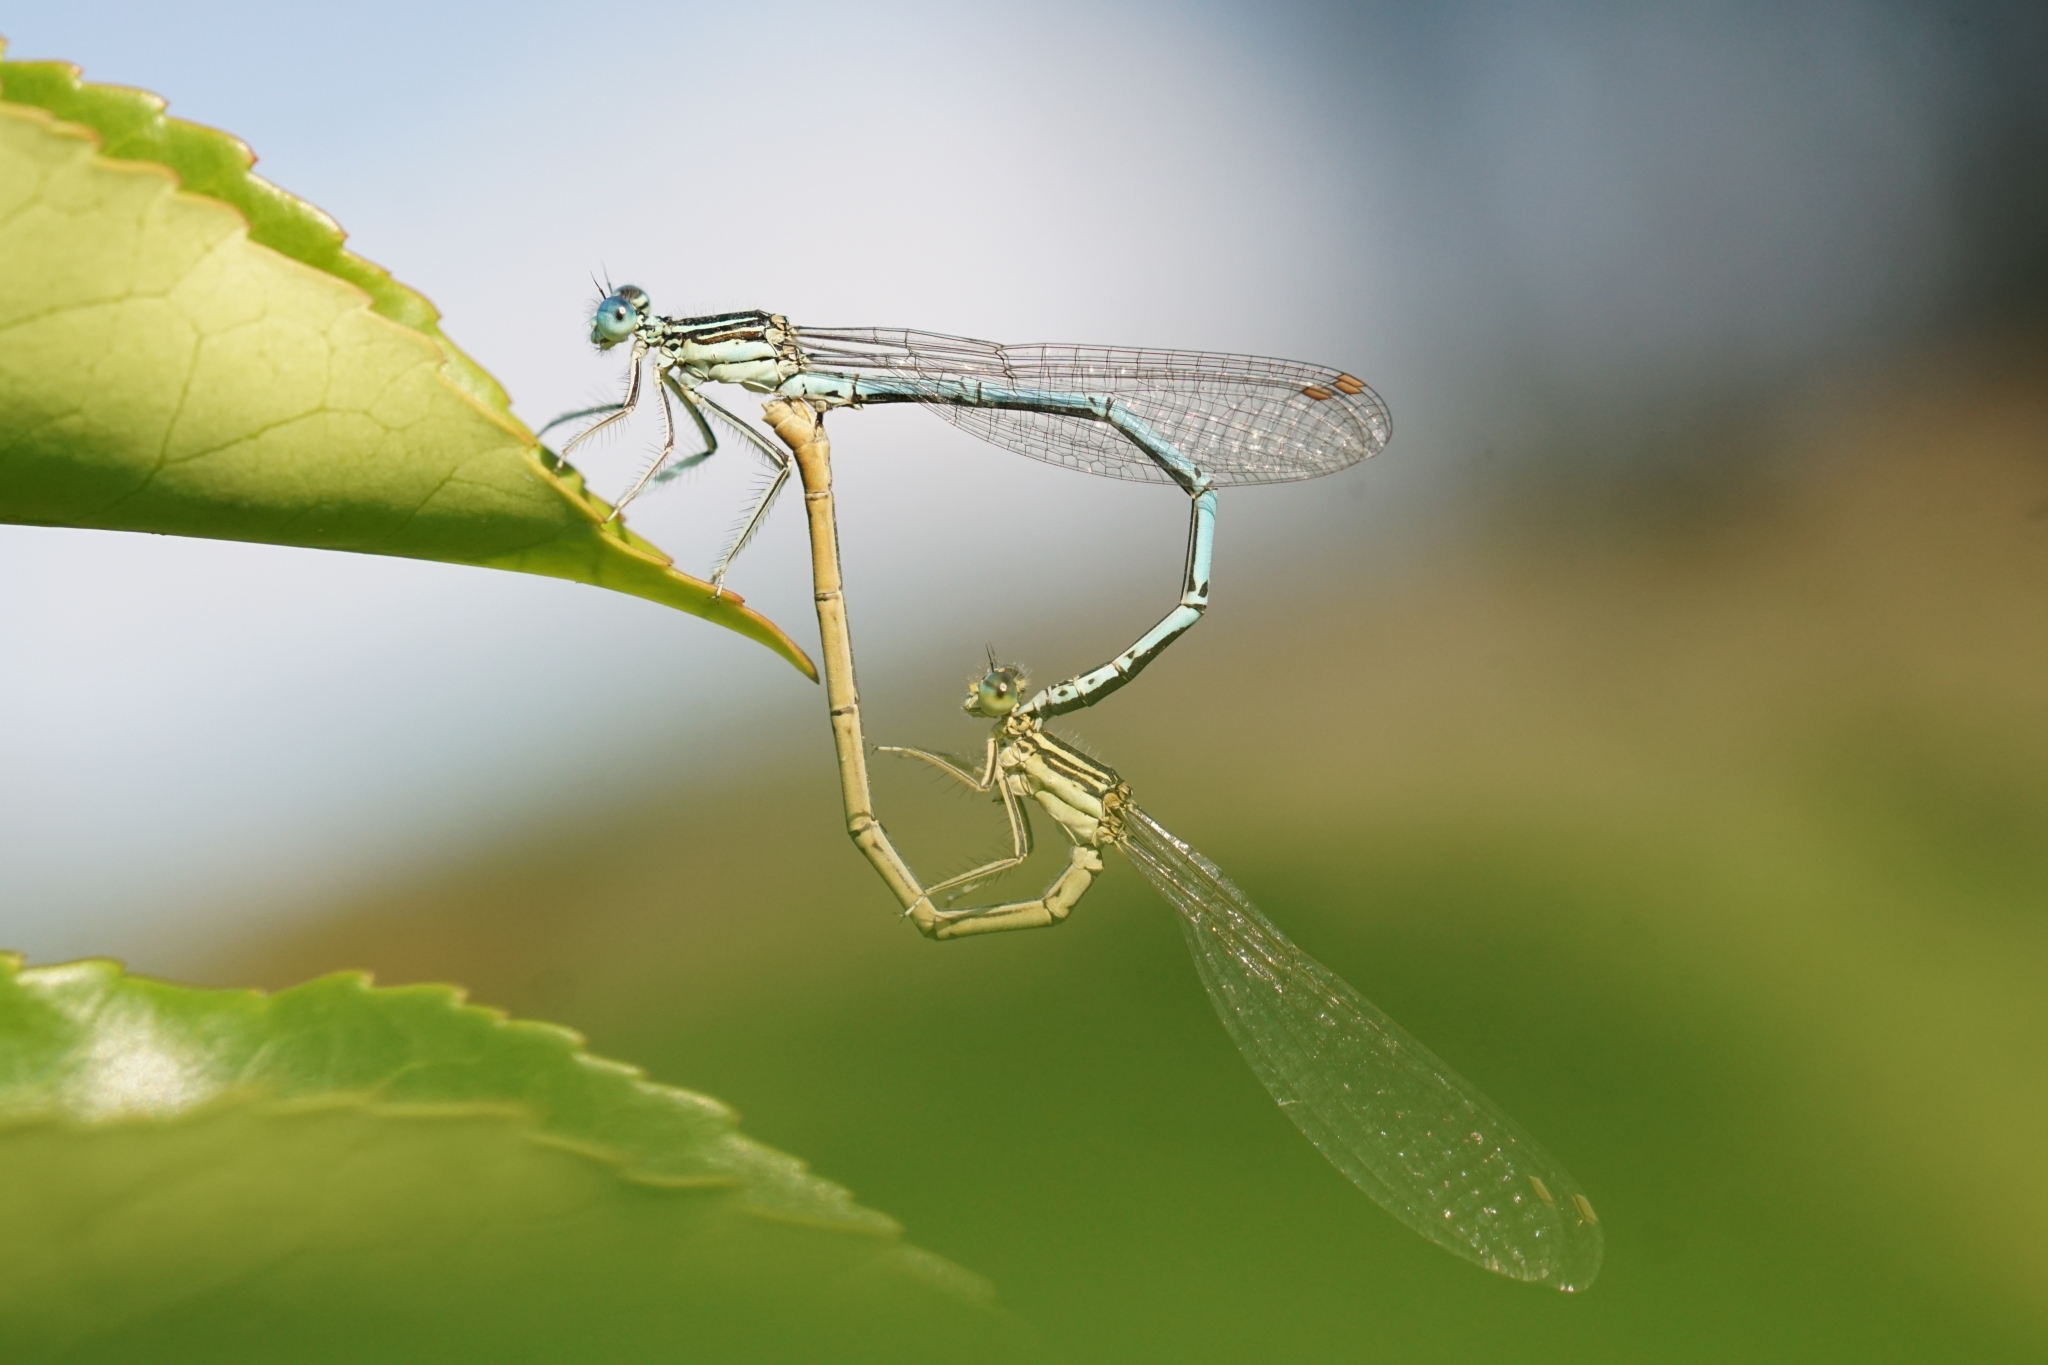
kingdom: Animalia
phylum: Arthropoda
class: Insecta
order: Odonata
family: Platycnemididae
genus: Platycnemis
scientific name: Platycnemis pennipes
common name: White-legged damselfly
